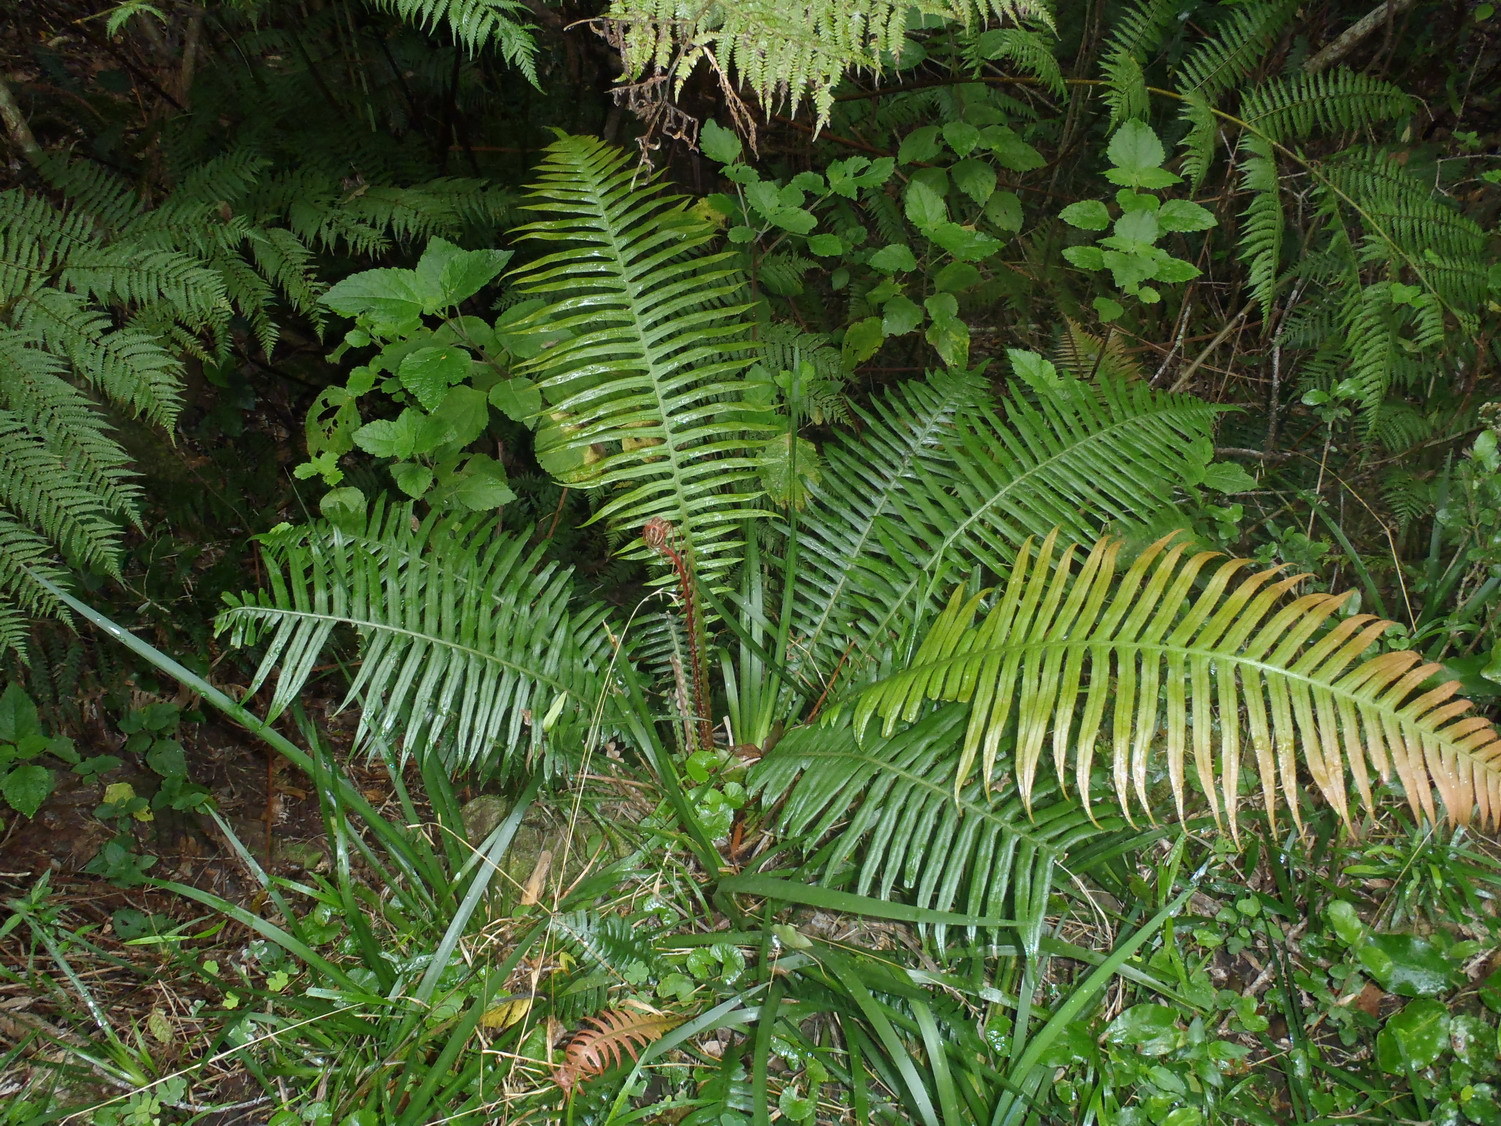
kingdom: Plantae
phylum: Tracheophyta
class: Polypodiopsida
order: Polypodiales
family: Blechnaceae
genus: Lomaridium
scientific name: Lomaridium attenuatum
